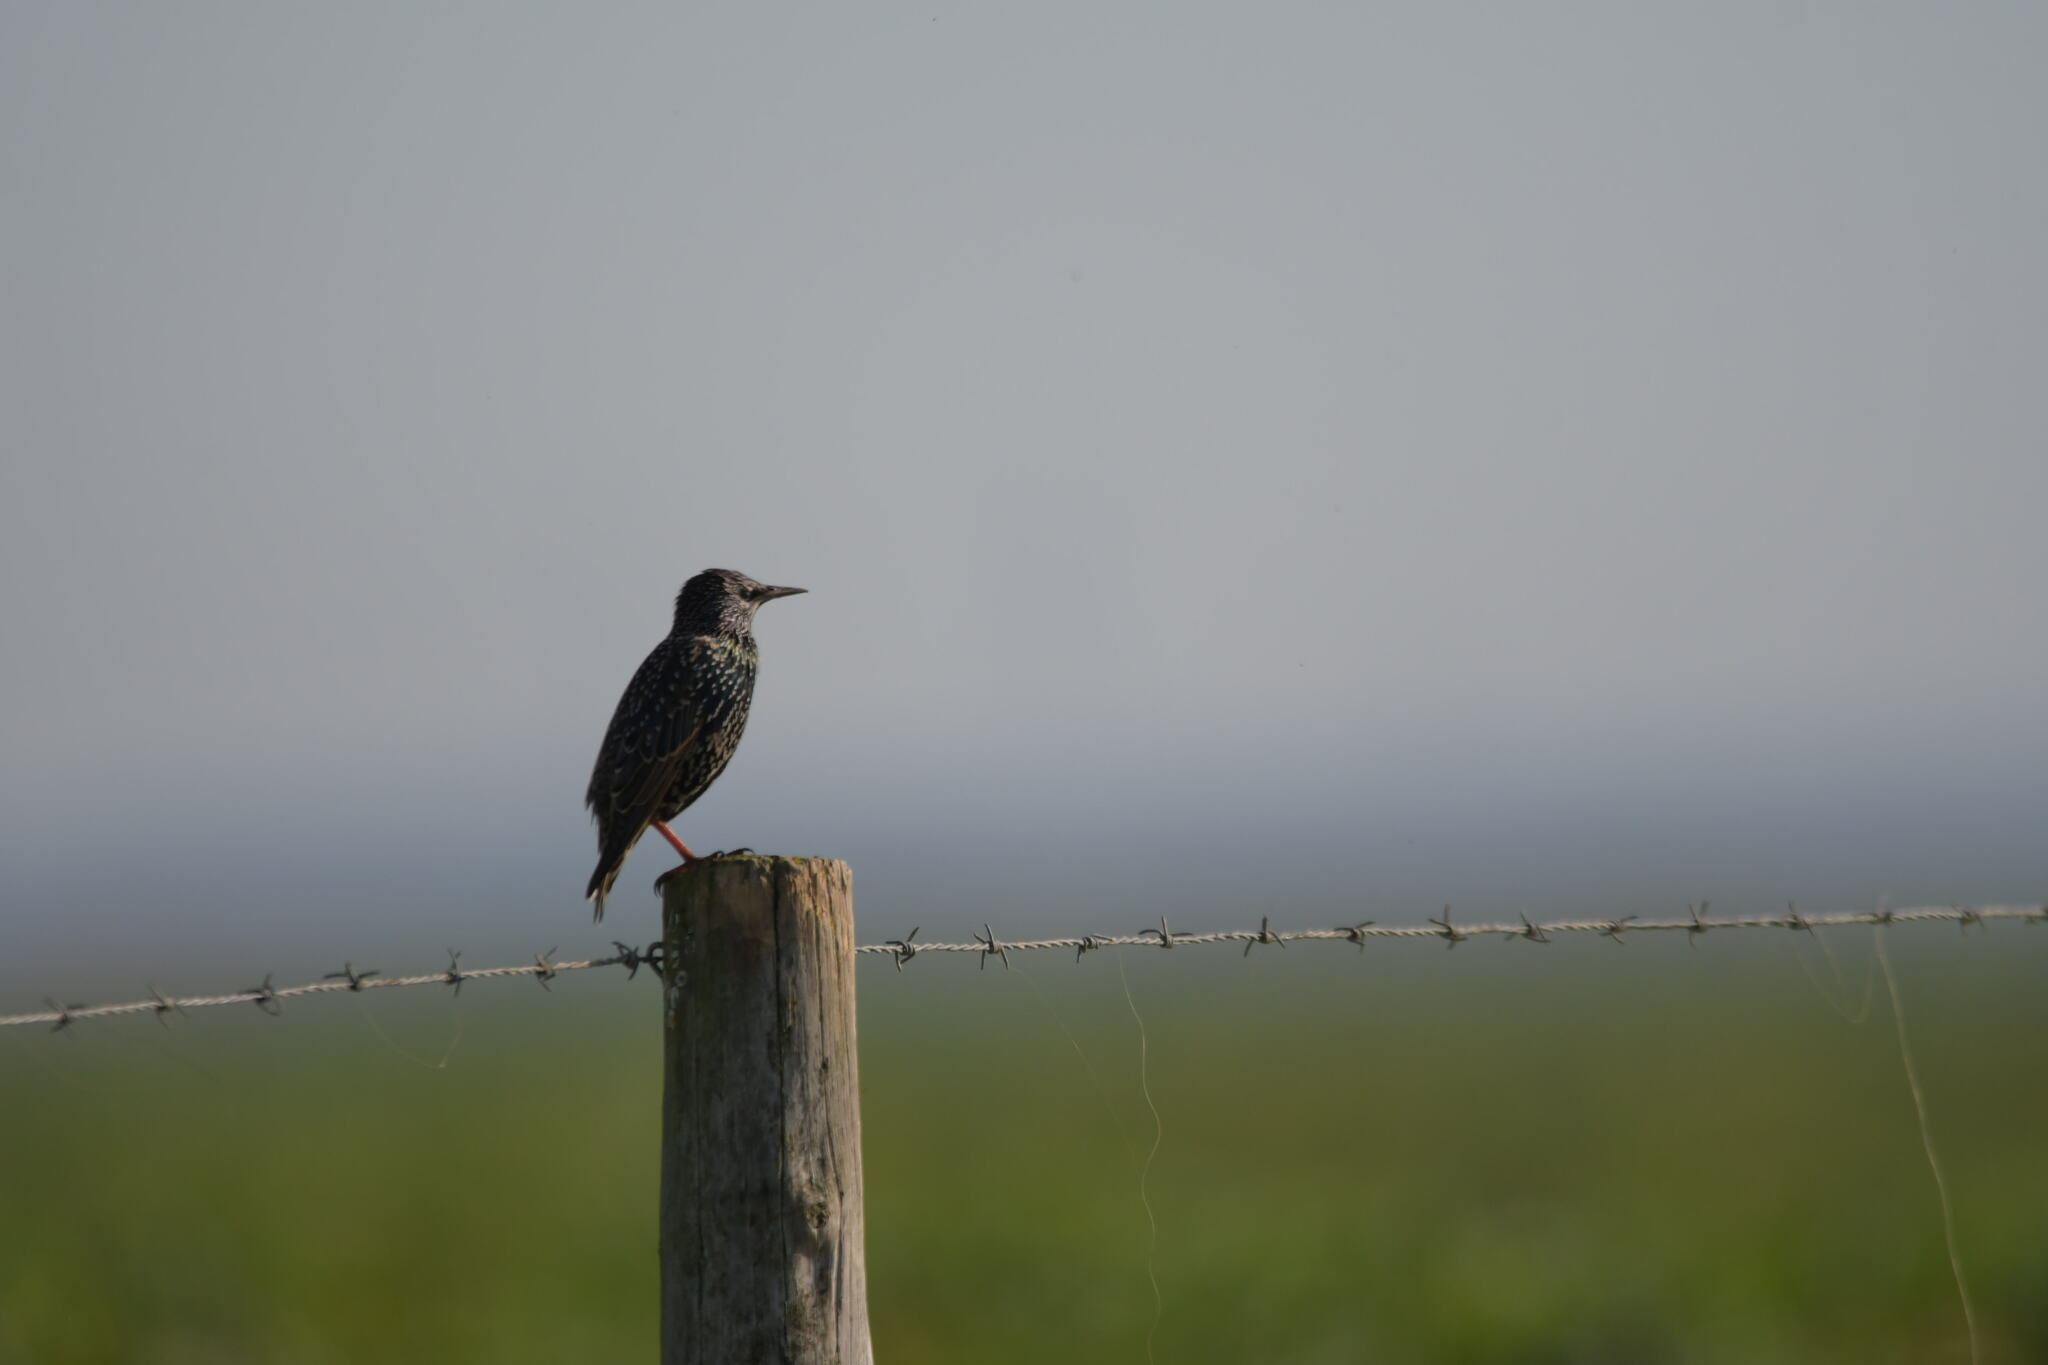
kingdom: Animalia
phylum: Chordata
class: Aves
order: Passeriformes
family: Sturnidae
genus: Sturnus
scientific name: Sturnus vulgaris
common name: Common starling
